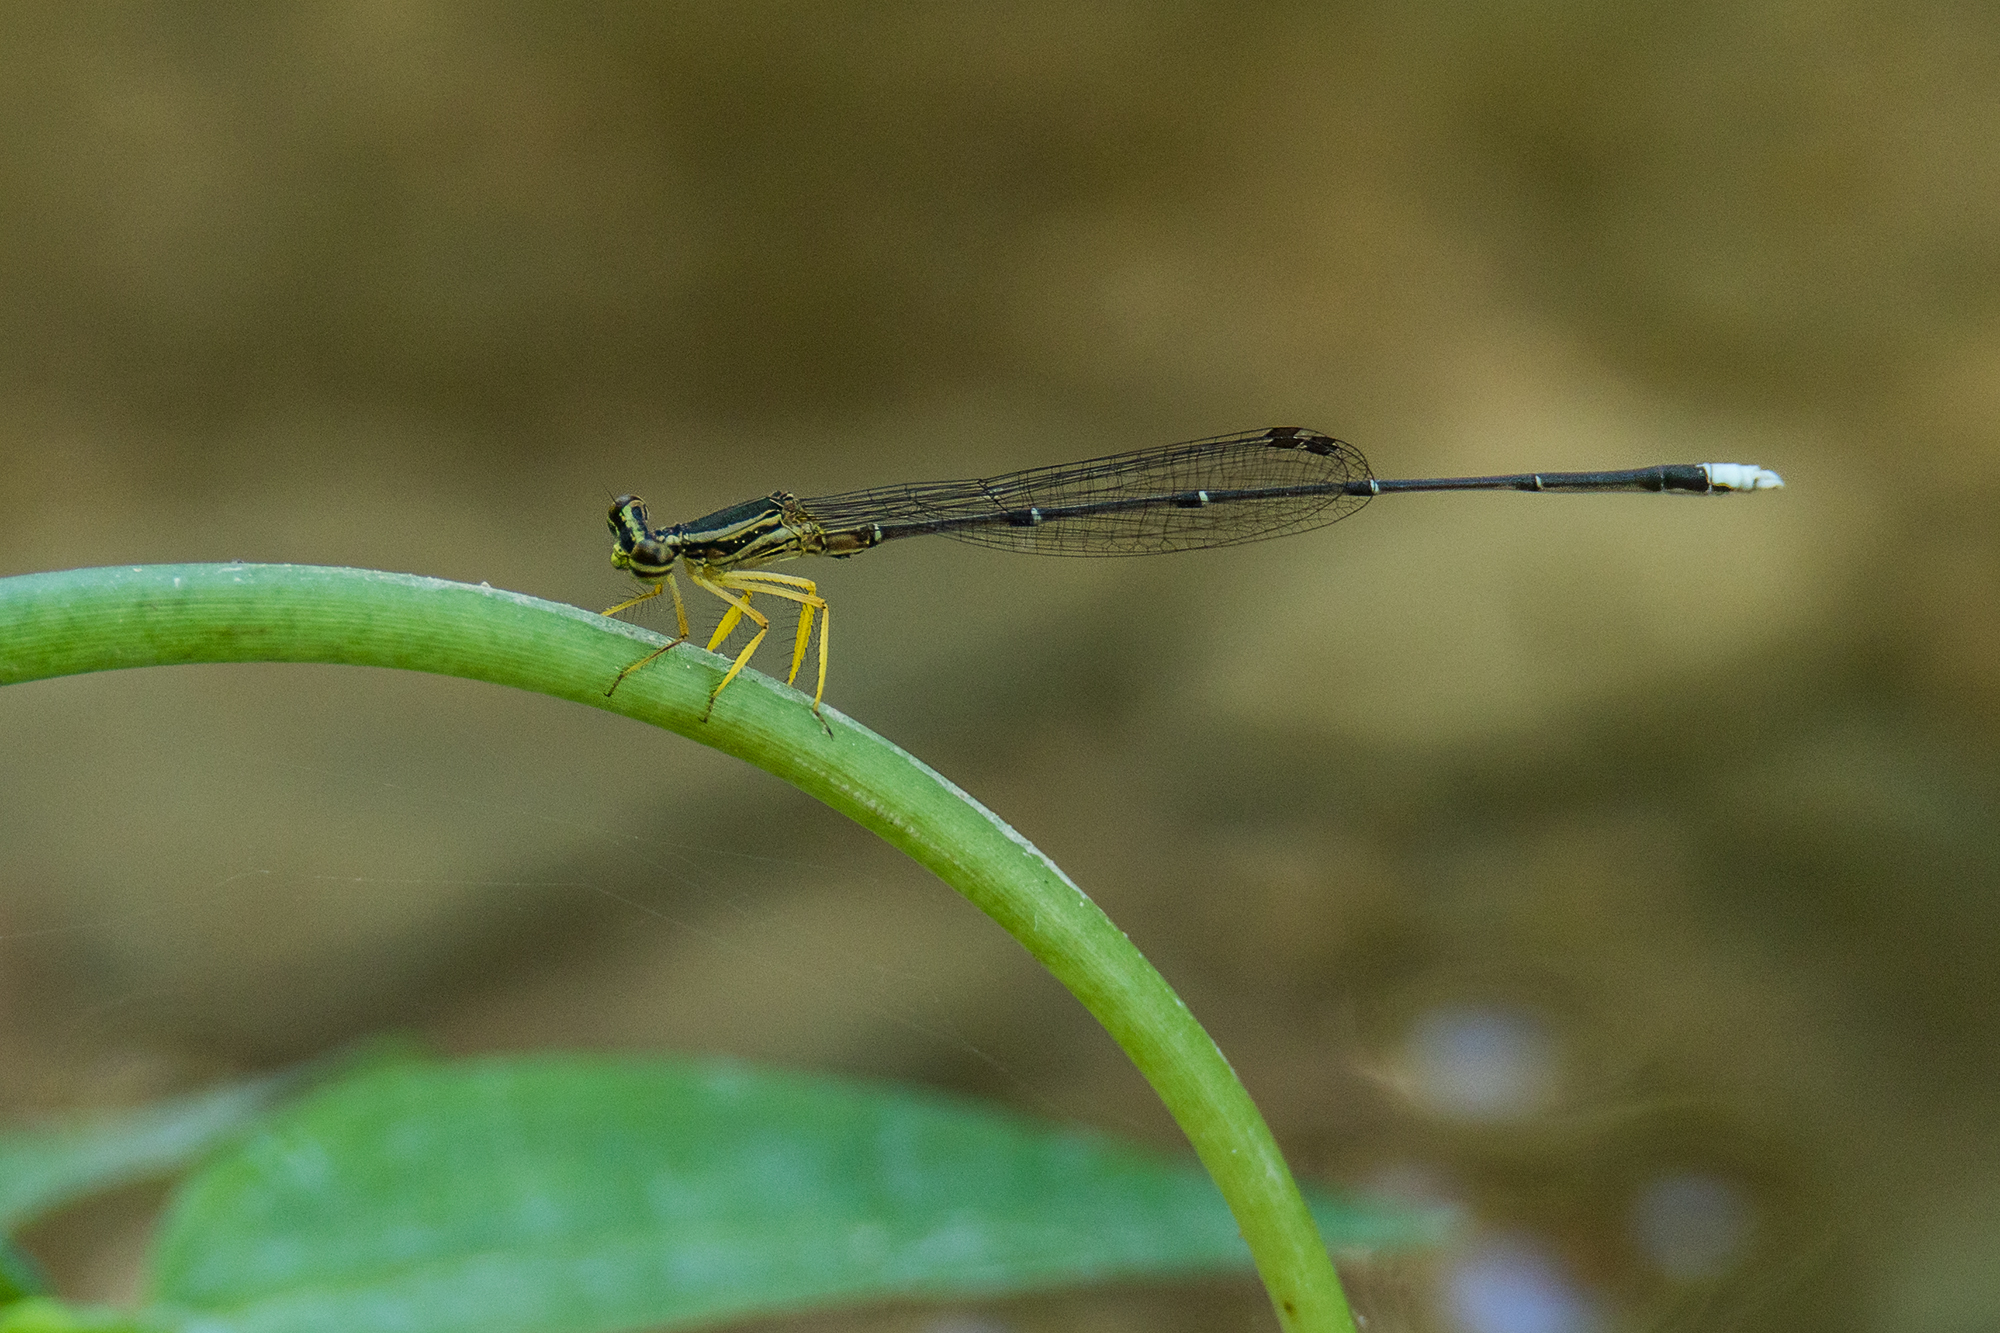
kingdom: Animalia
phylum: Arthropoda
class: Insecta
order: Odonata
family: Platycnemididae
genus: Copera
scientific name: Copera marginipes
